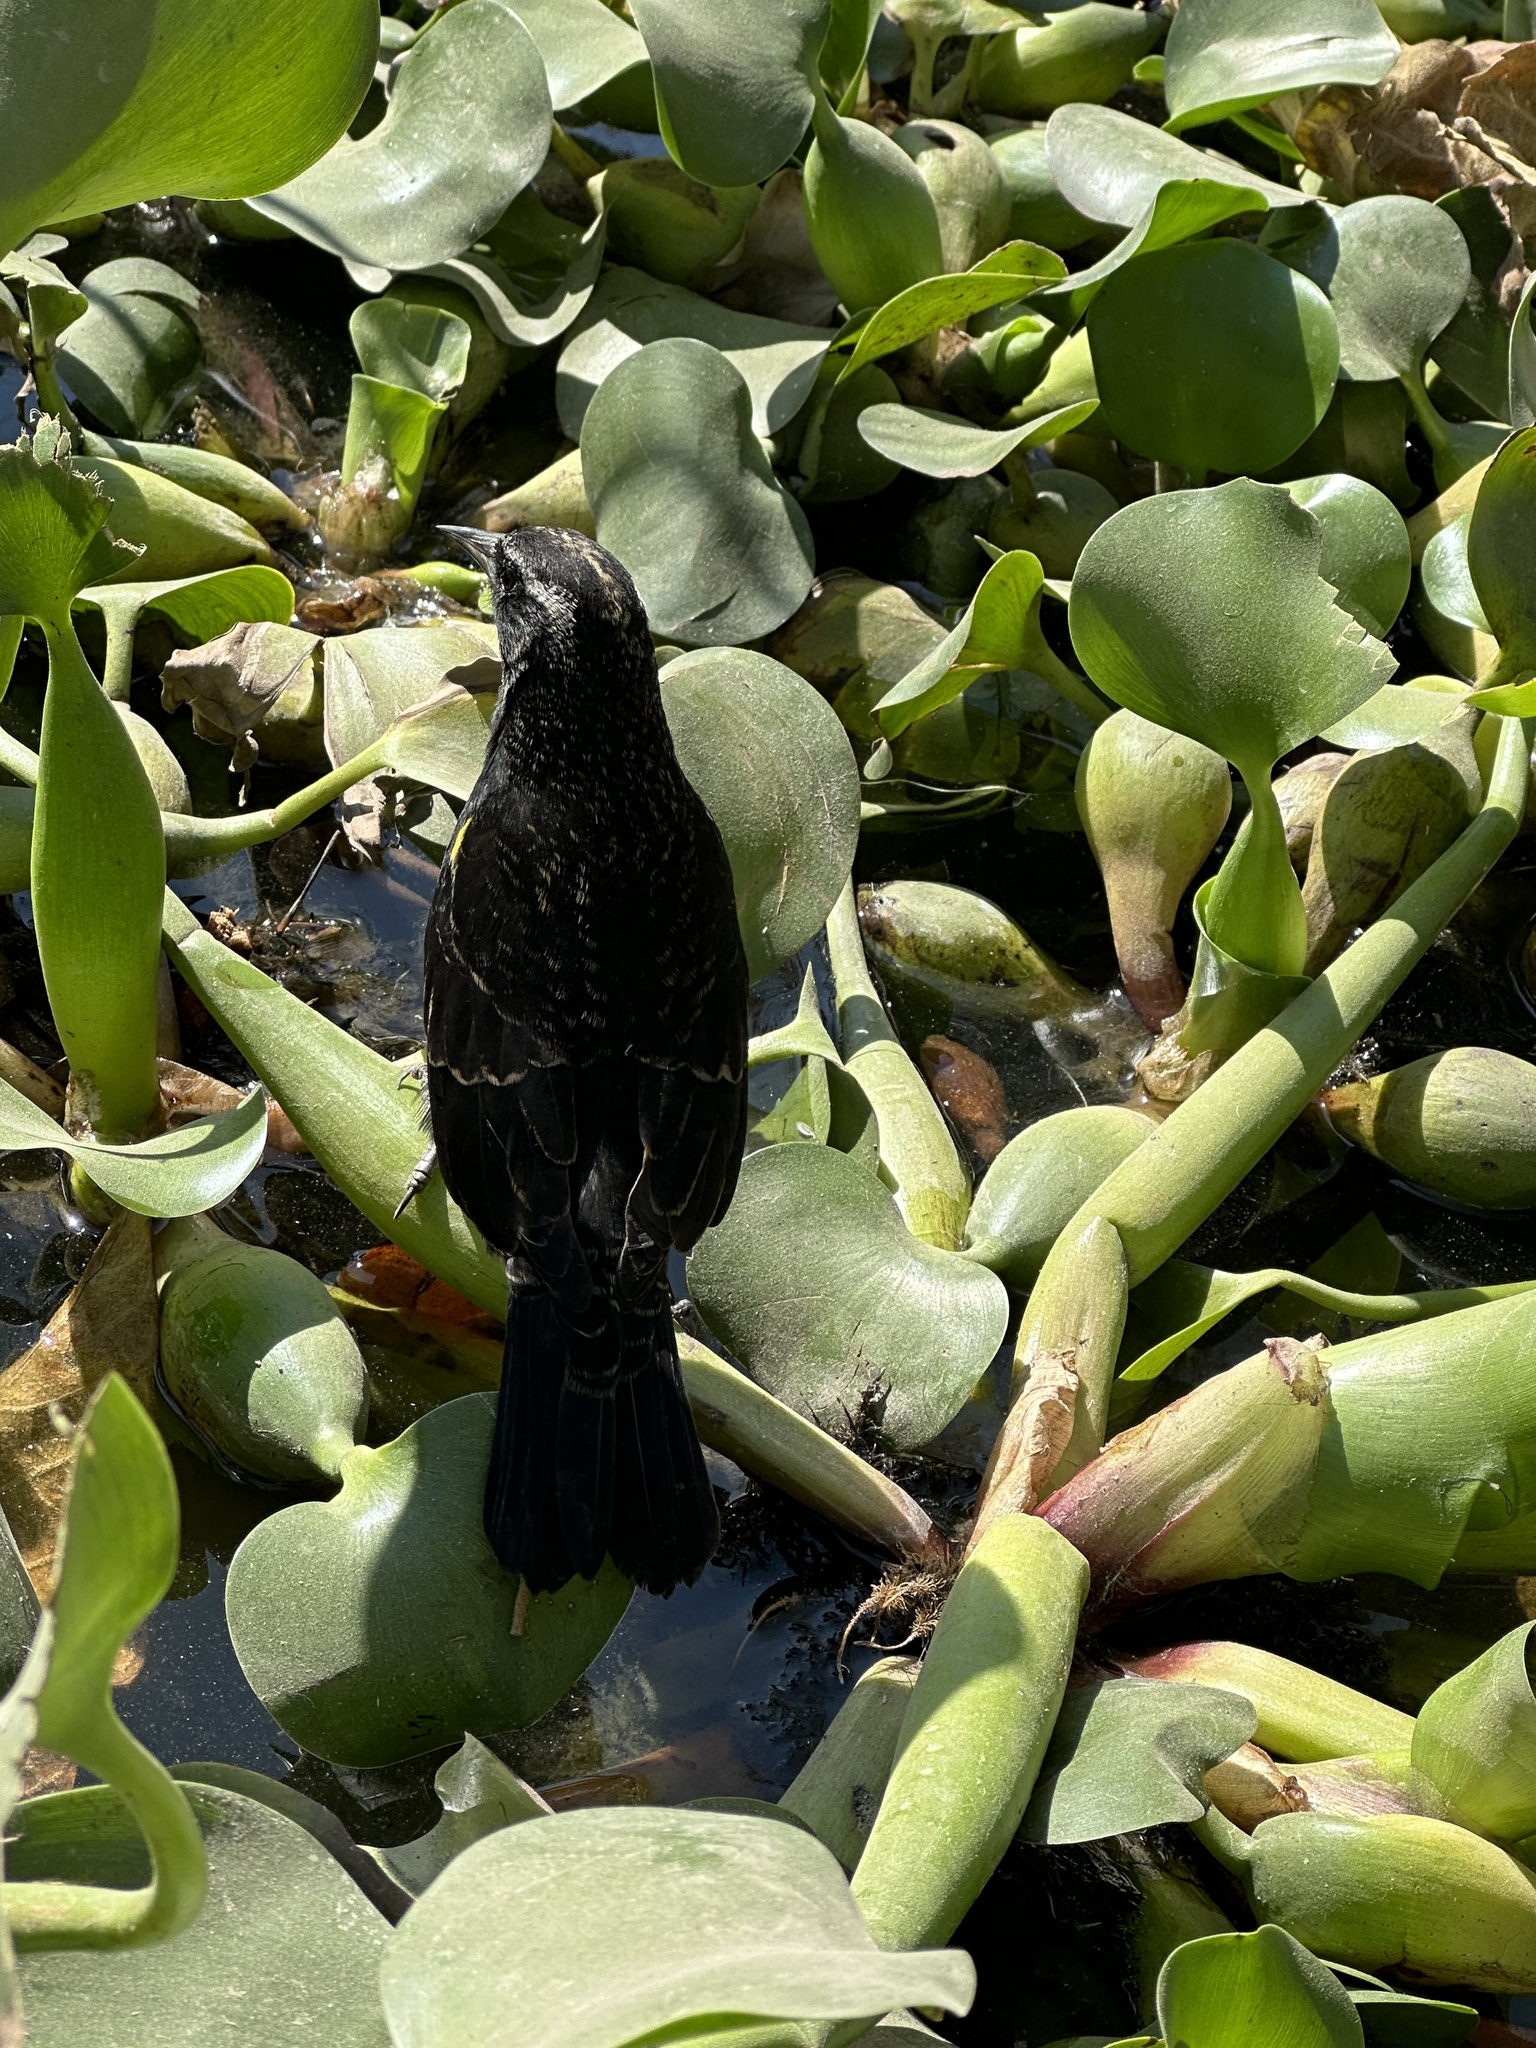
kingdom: Animalia
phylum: Chordata
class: Aves
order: Passeriformes
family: Icteridae
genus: Agelasticus
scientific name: Agelasticus thilius
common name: Yellow-winged blackbird
